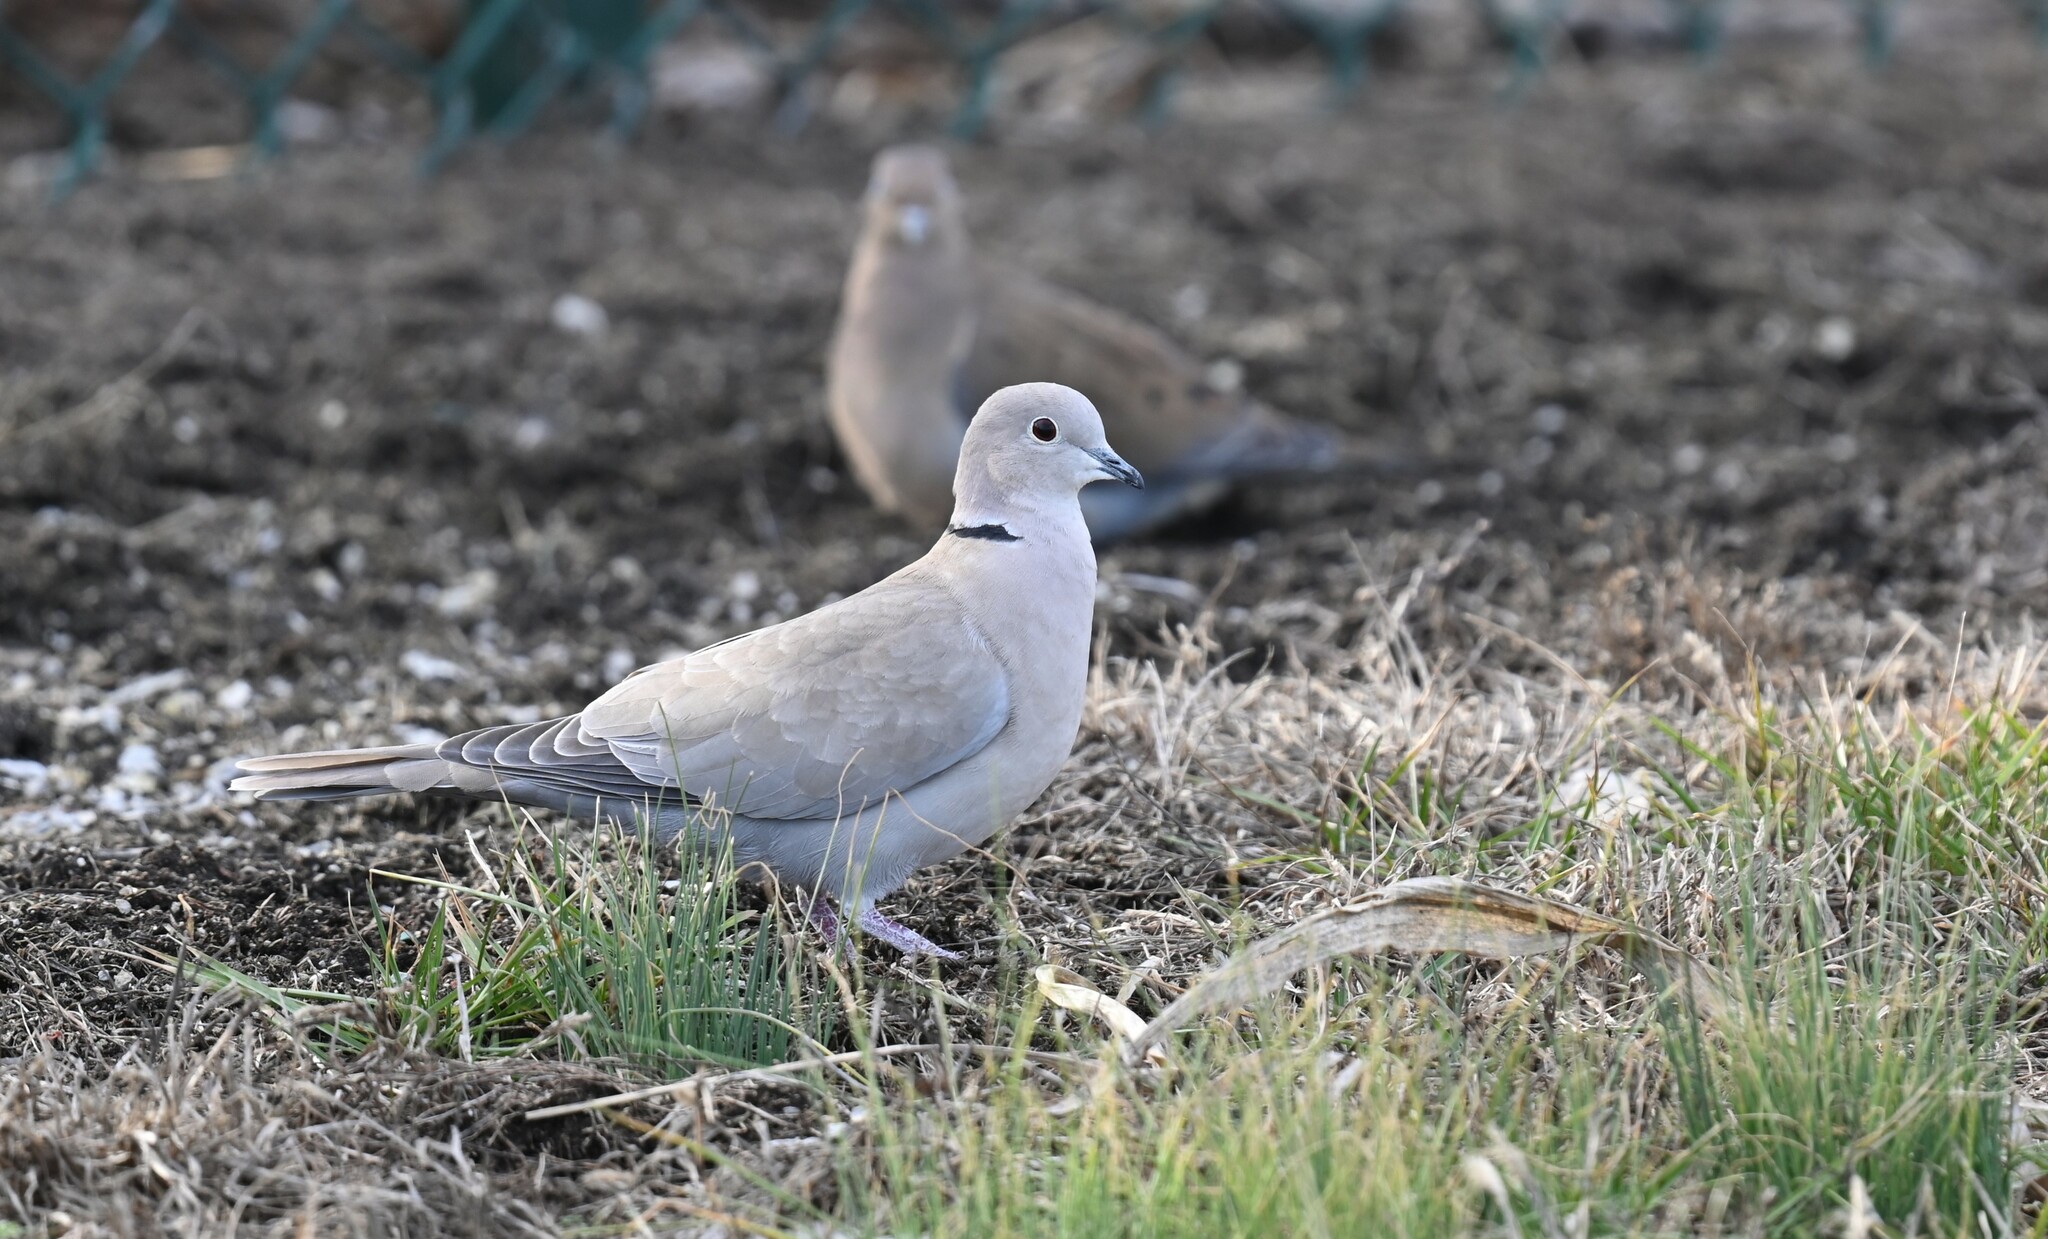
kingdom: Animalia
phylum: Chordata
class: Aves
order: Columbiformes
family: Columbidae
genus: Streptopelia
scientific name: Streptopelia decaocto
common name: Eurasian collared dove
